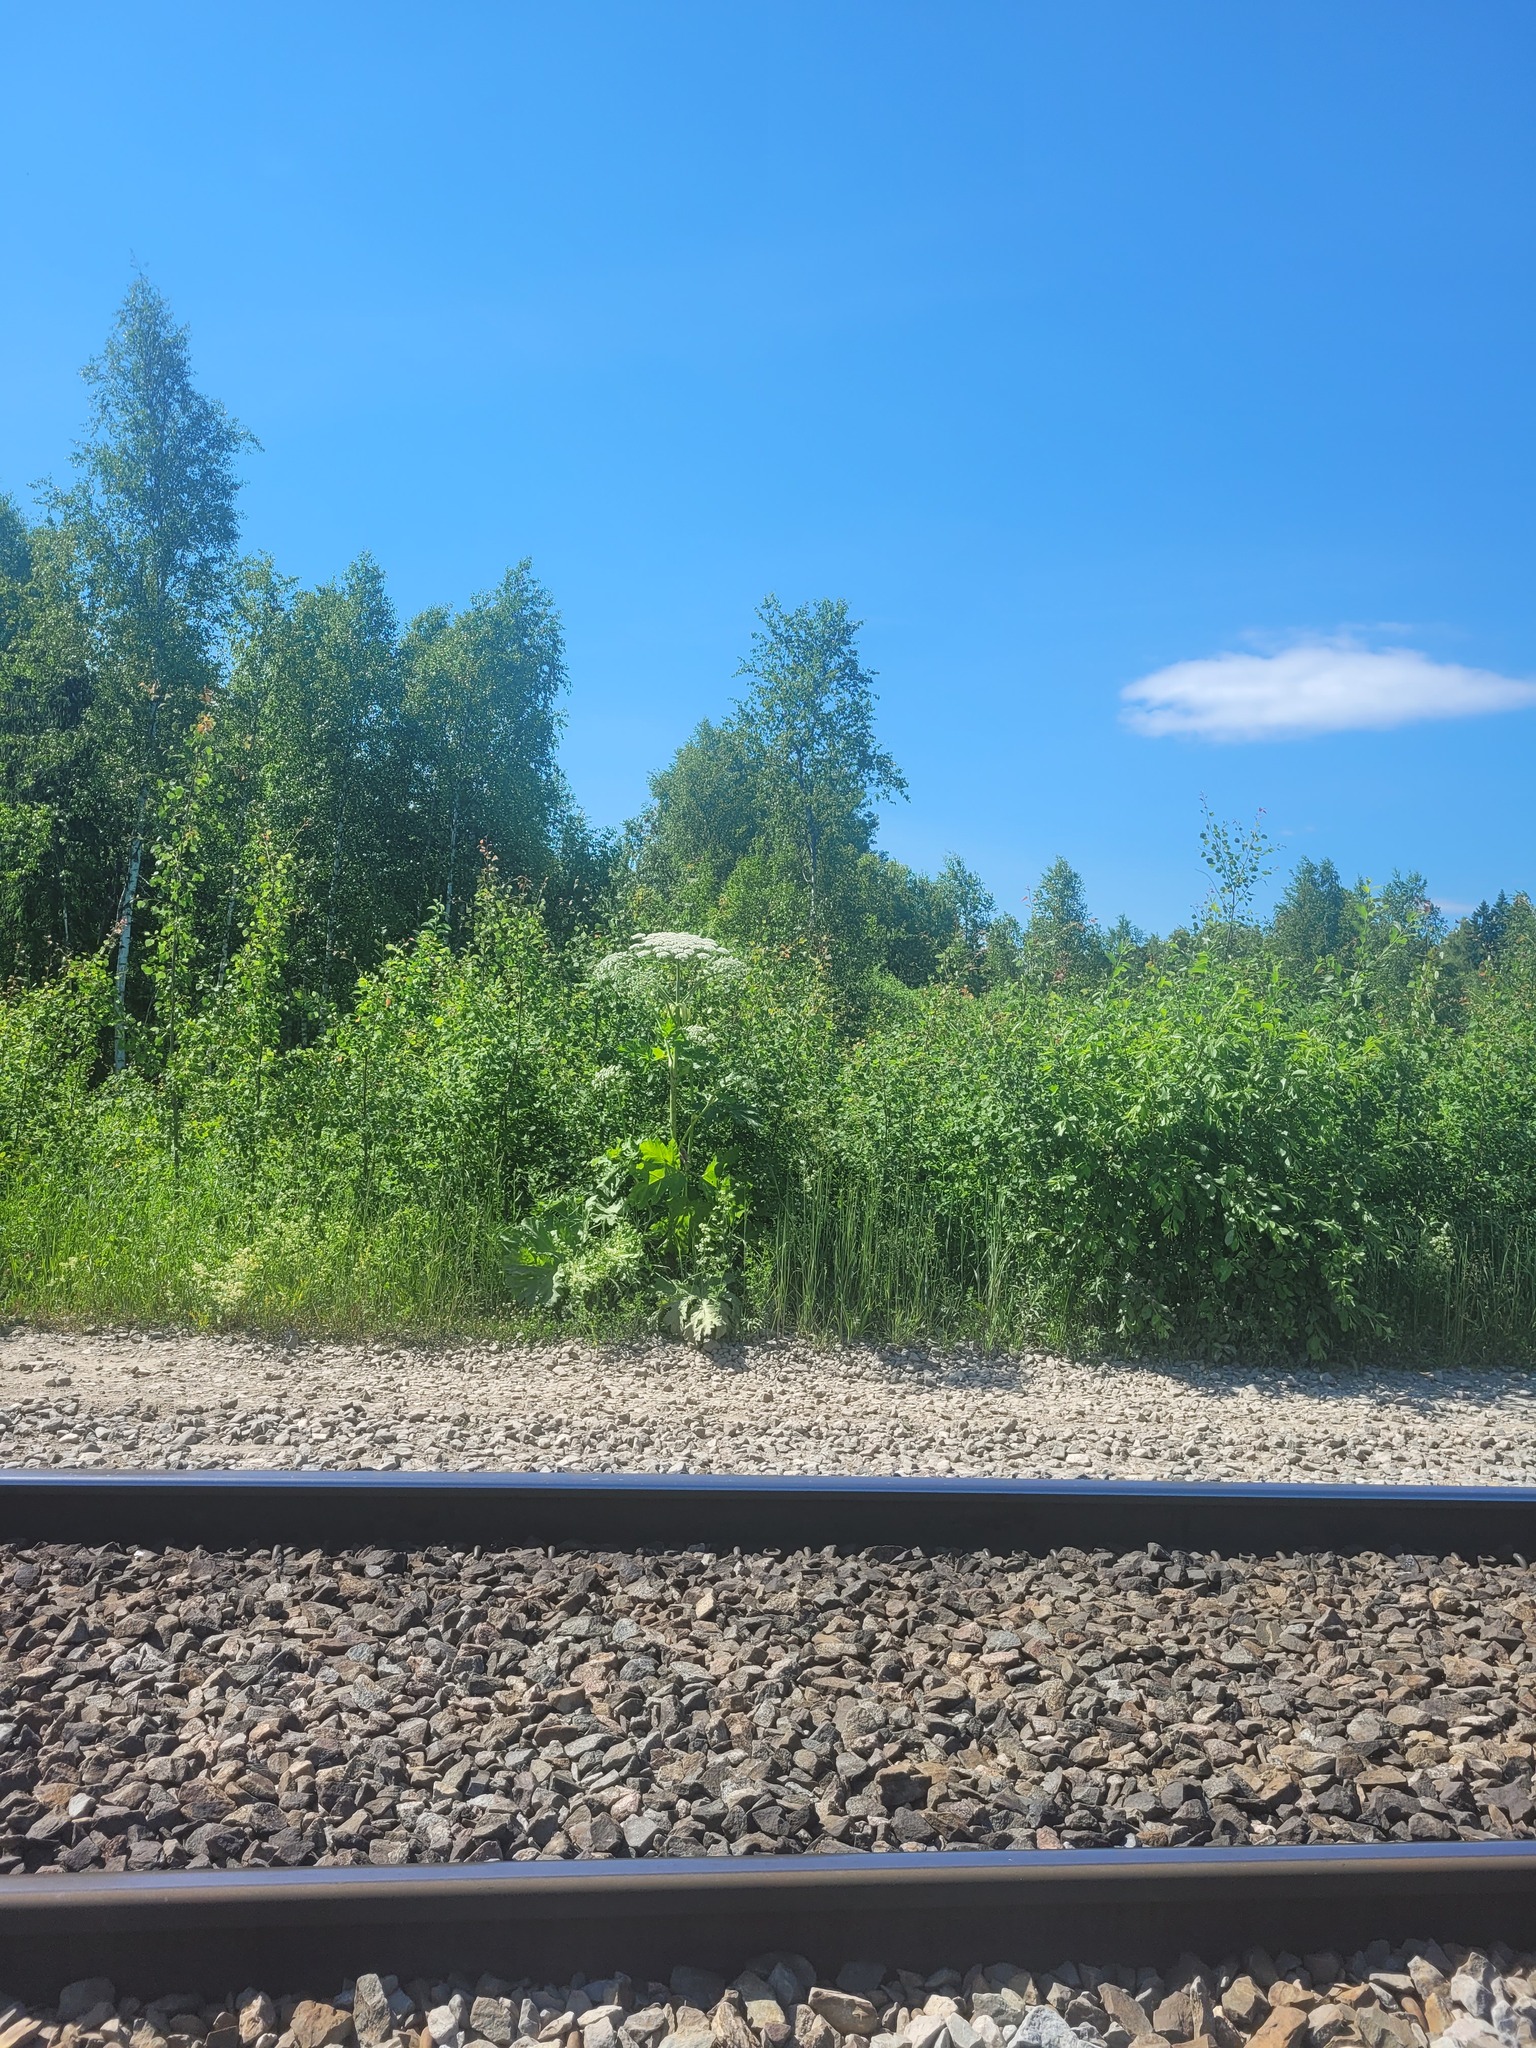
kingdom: Plantae
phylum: Tracheophyta
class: Magnoliopsida
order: Apiales
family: Apiaceae
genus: Heracleum
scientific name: Heracleum sosnowskyi
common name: Sosnowsky's hogweed
